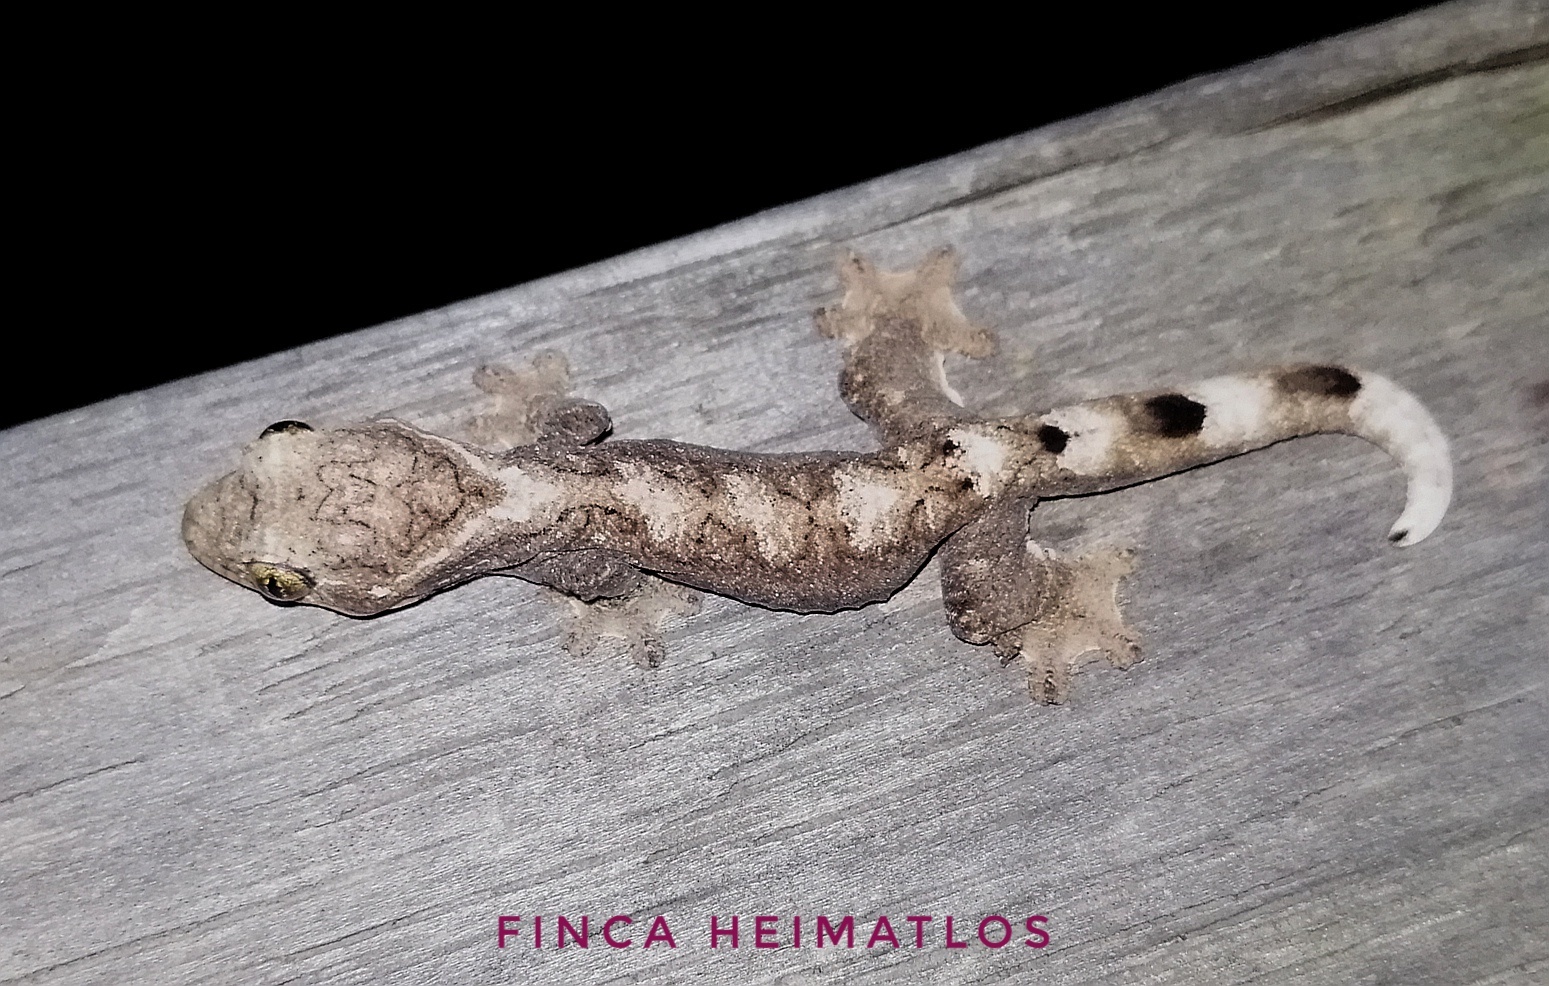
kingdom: Animalia
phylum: Chordata
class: Squamata
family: Phyllodactylidae
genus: Thecadactylus
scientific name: Thecadactylus solimoensis
